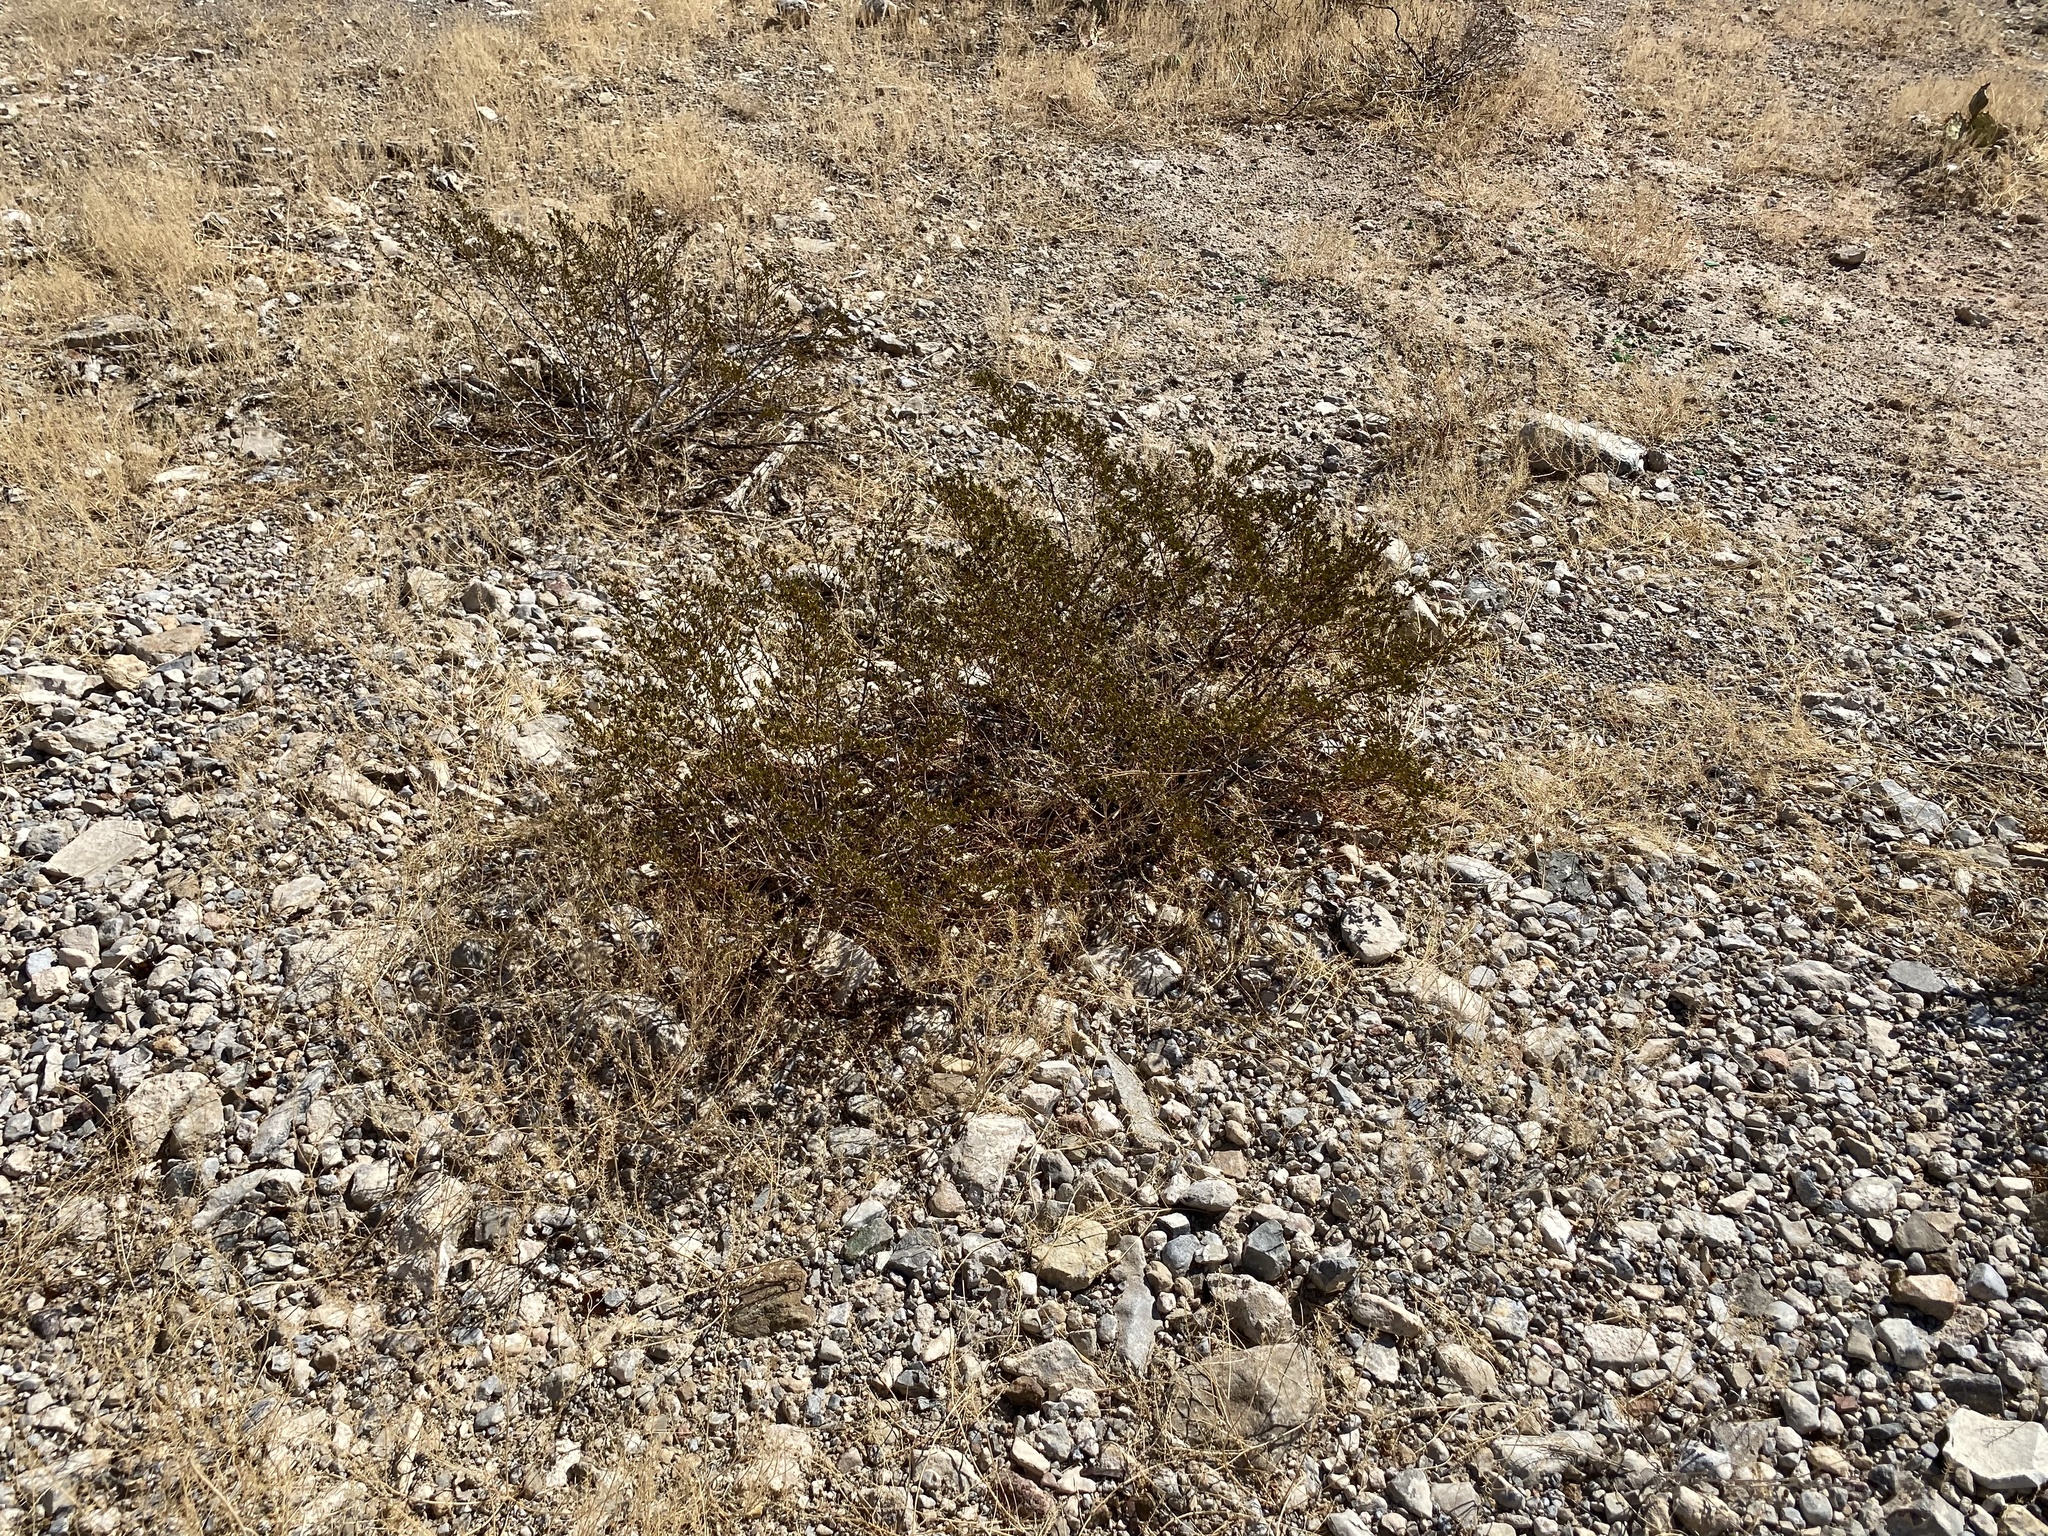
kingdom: Plantae
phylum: Tracheophyta
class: Magnoliopsida
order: Zygophyllales
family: Zygophyllaceae
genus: Larrea
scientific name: Larrea tridentata
